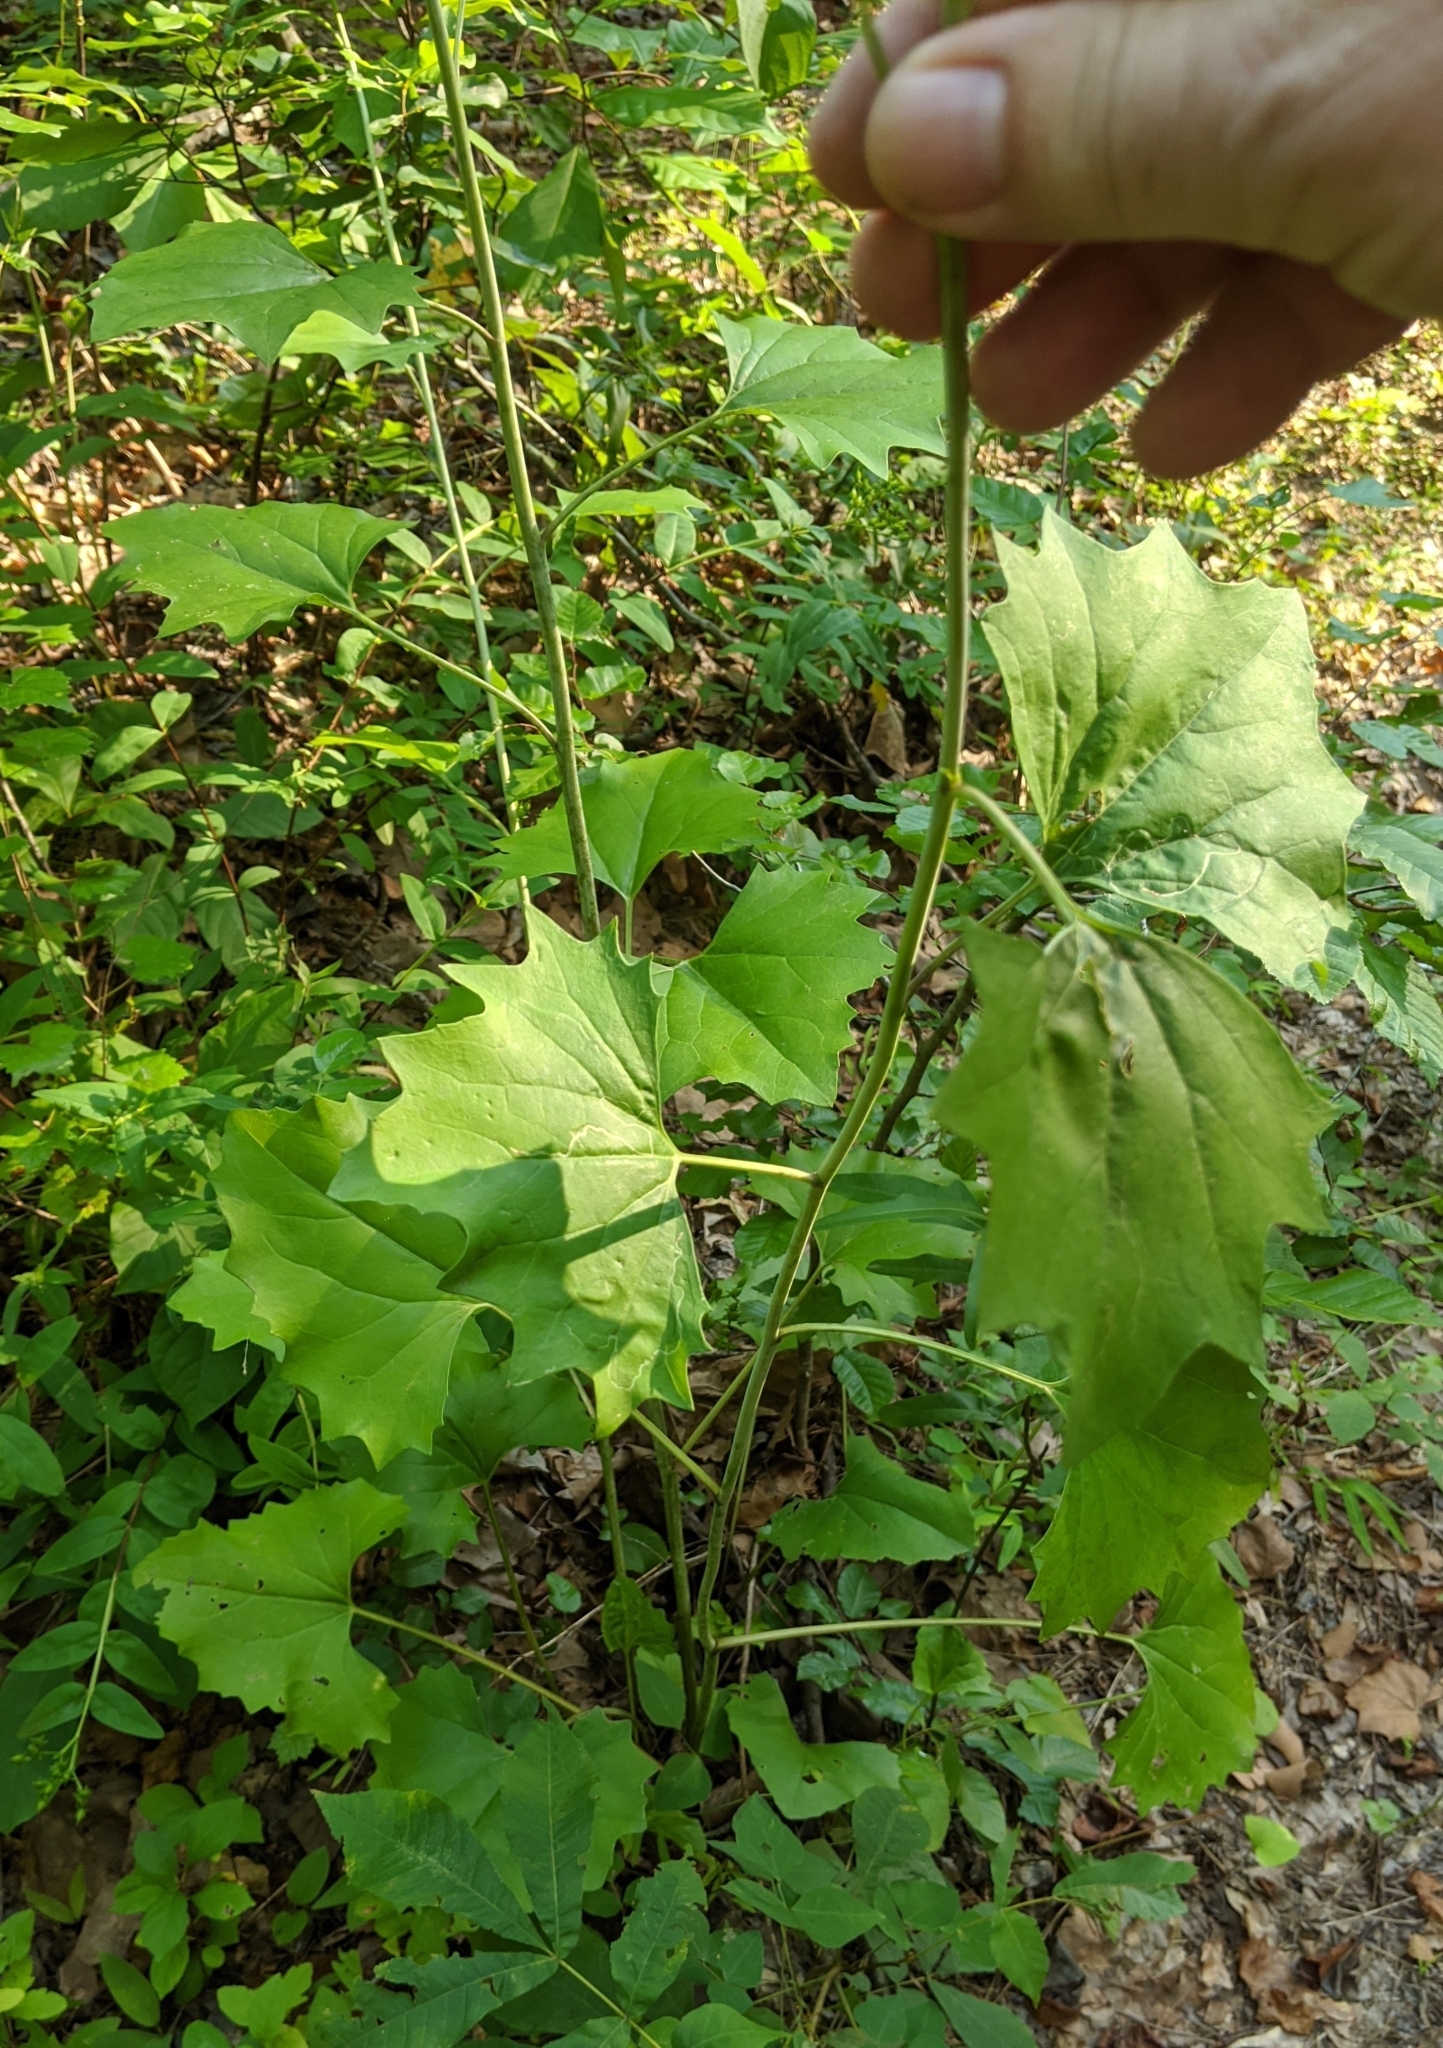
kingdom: Plantae
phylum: Tracheophyta
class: Magnoliopsida
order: Asterales
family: Asteraceae
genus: Arnoglossum
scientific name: Arnoglossum atriplicifolium
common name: Pale indian-plantain
